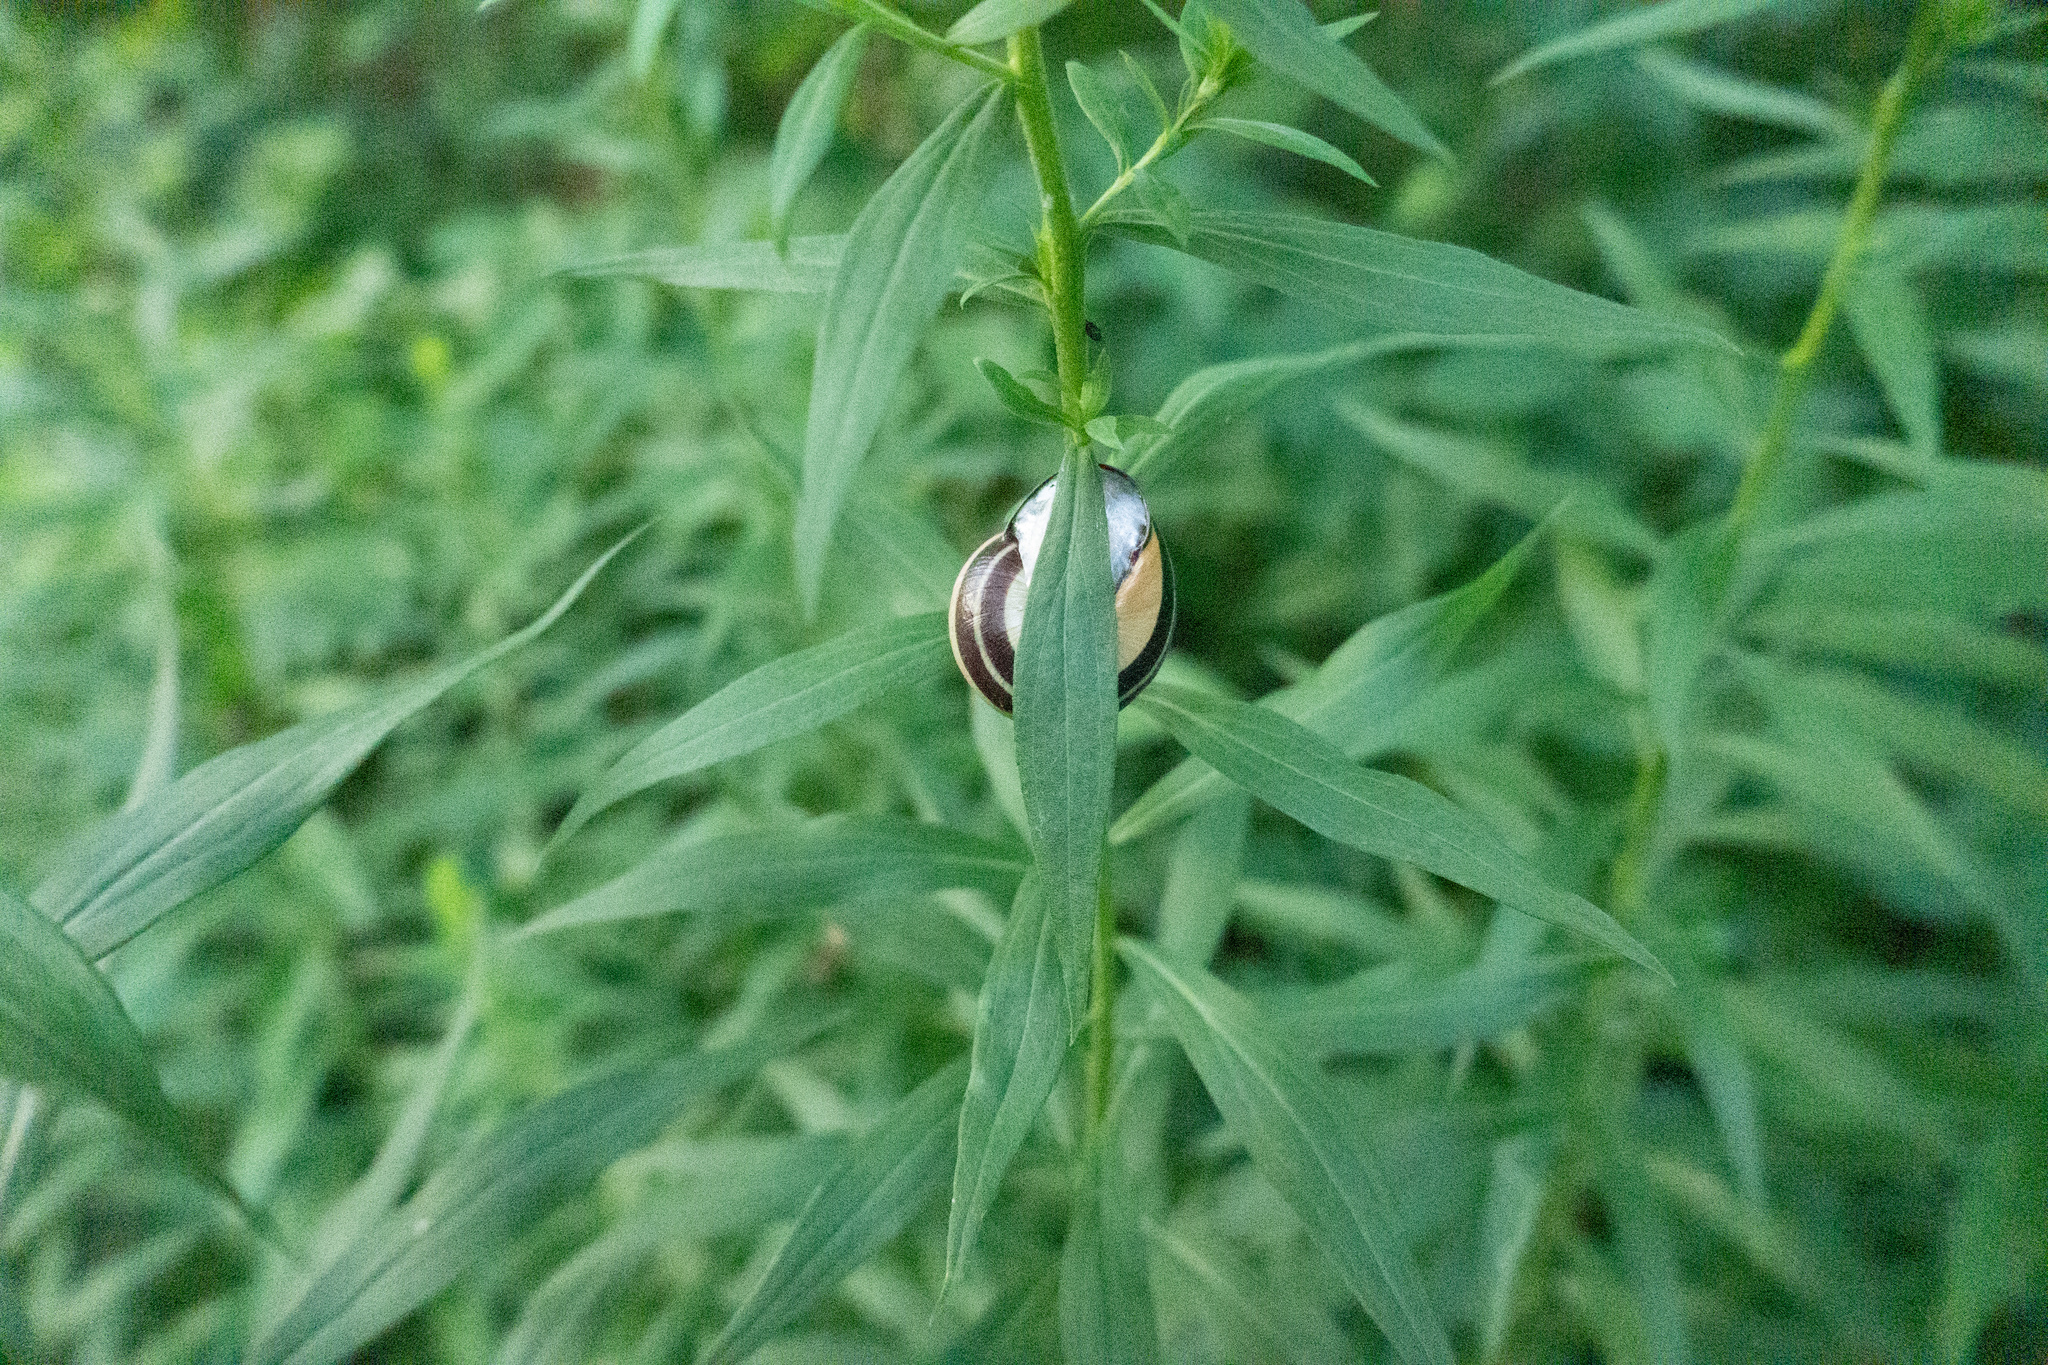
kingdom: Animalia
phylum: Mollusca
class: Gastropoda
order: Stylommatophora
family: Helicidae
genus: Cepaea
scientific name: Cepaea nemoralis
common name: Grovesnail
